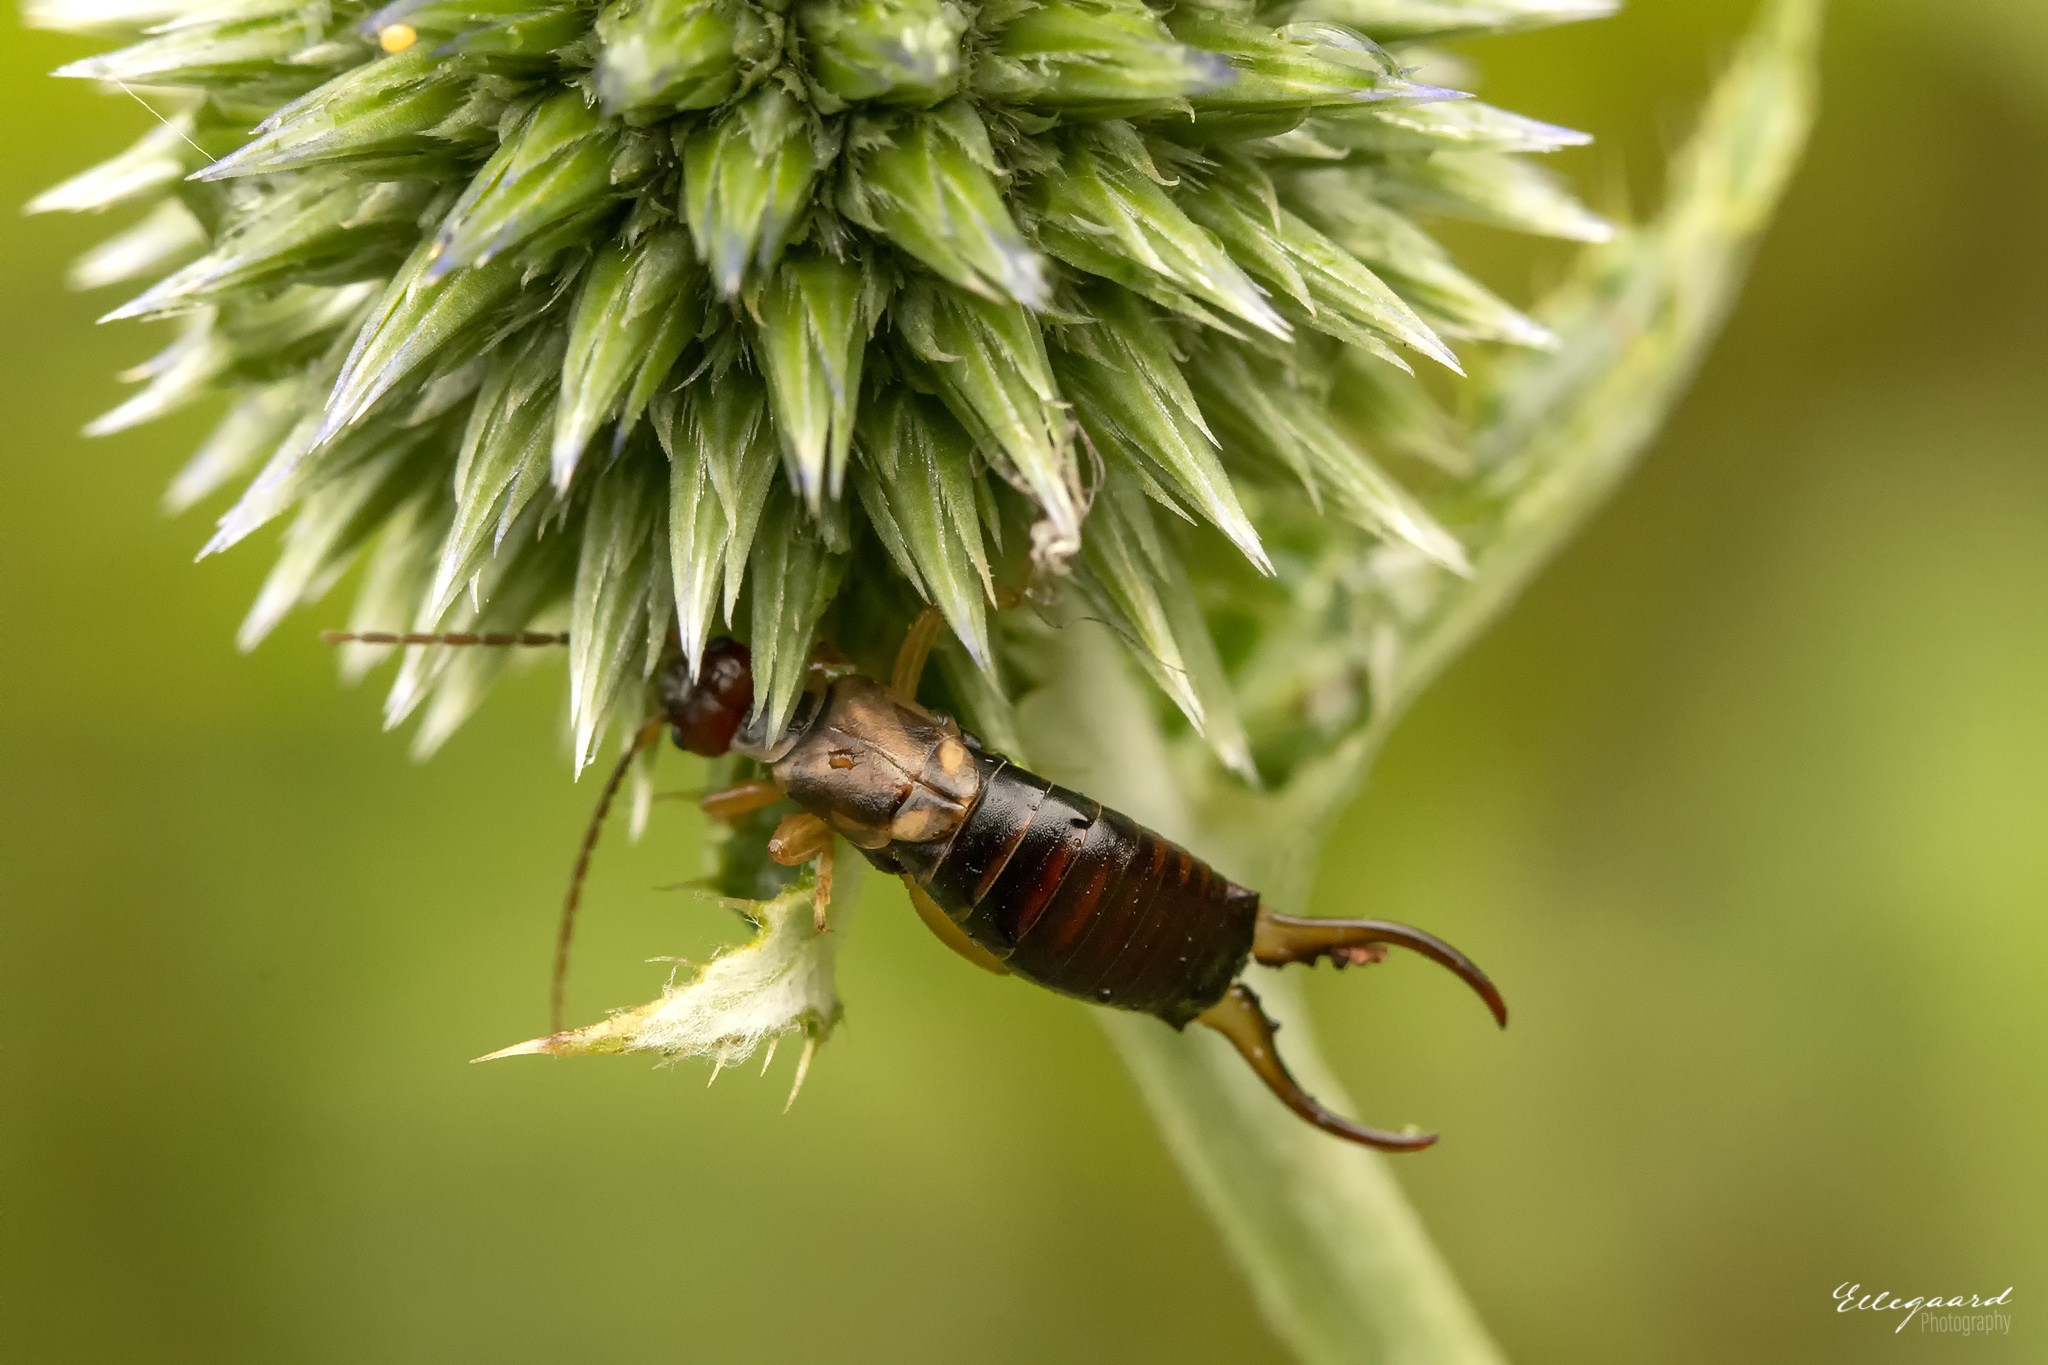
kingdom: Animalia
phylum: Arthropoda
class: Insecta
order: Dermaptera
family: Forficulidae
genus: Forficula
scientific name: Forficula
